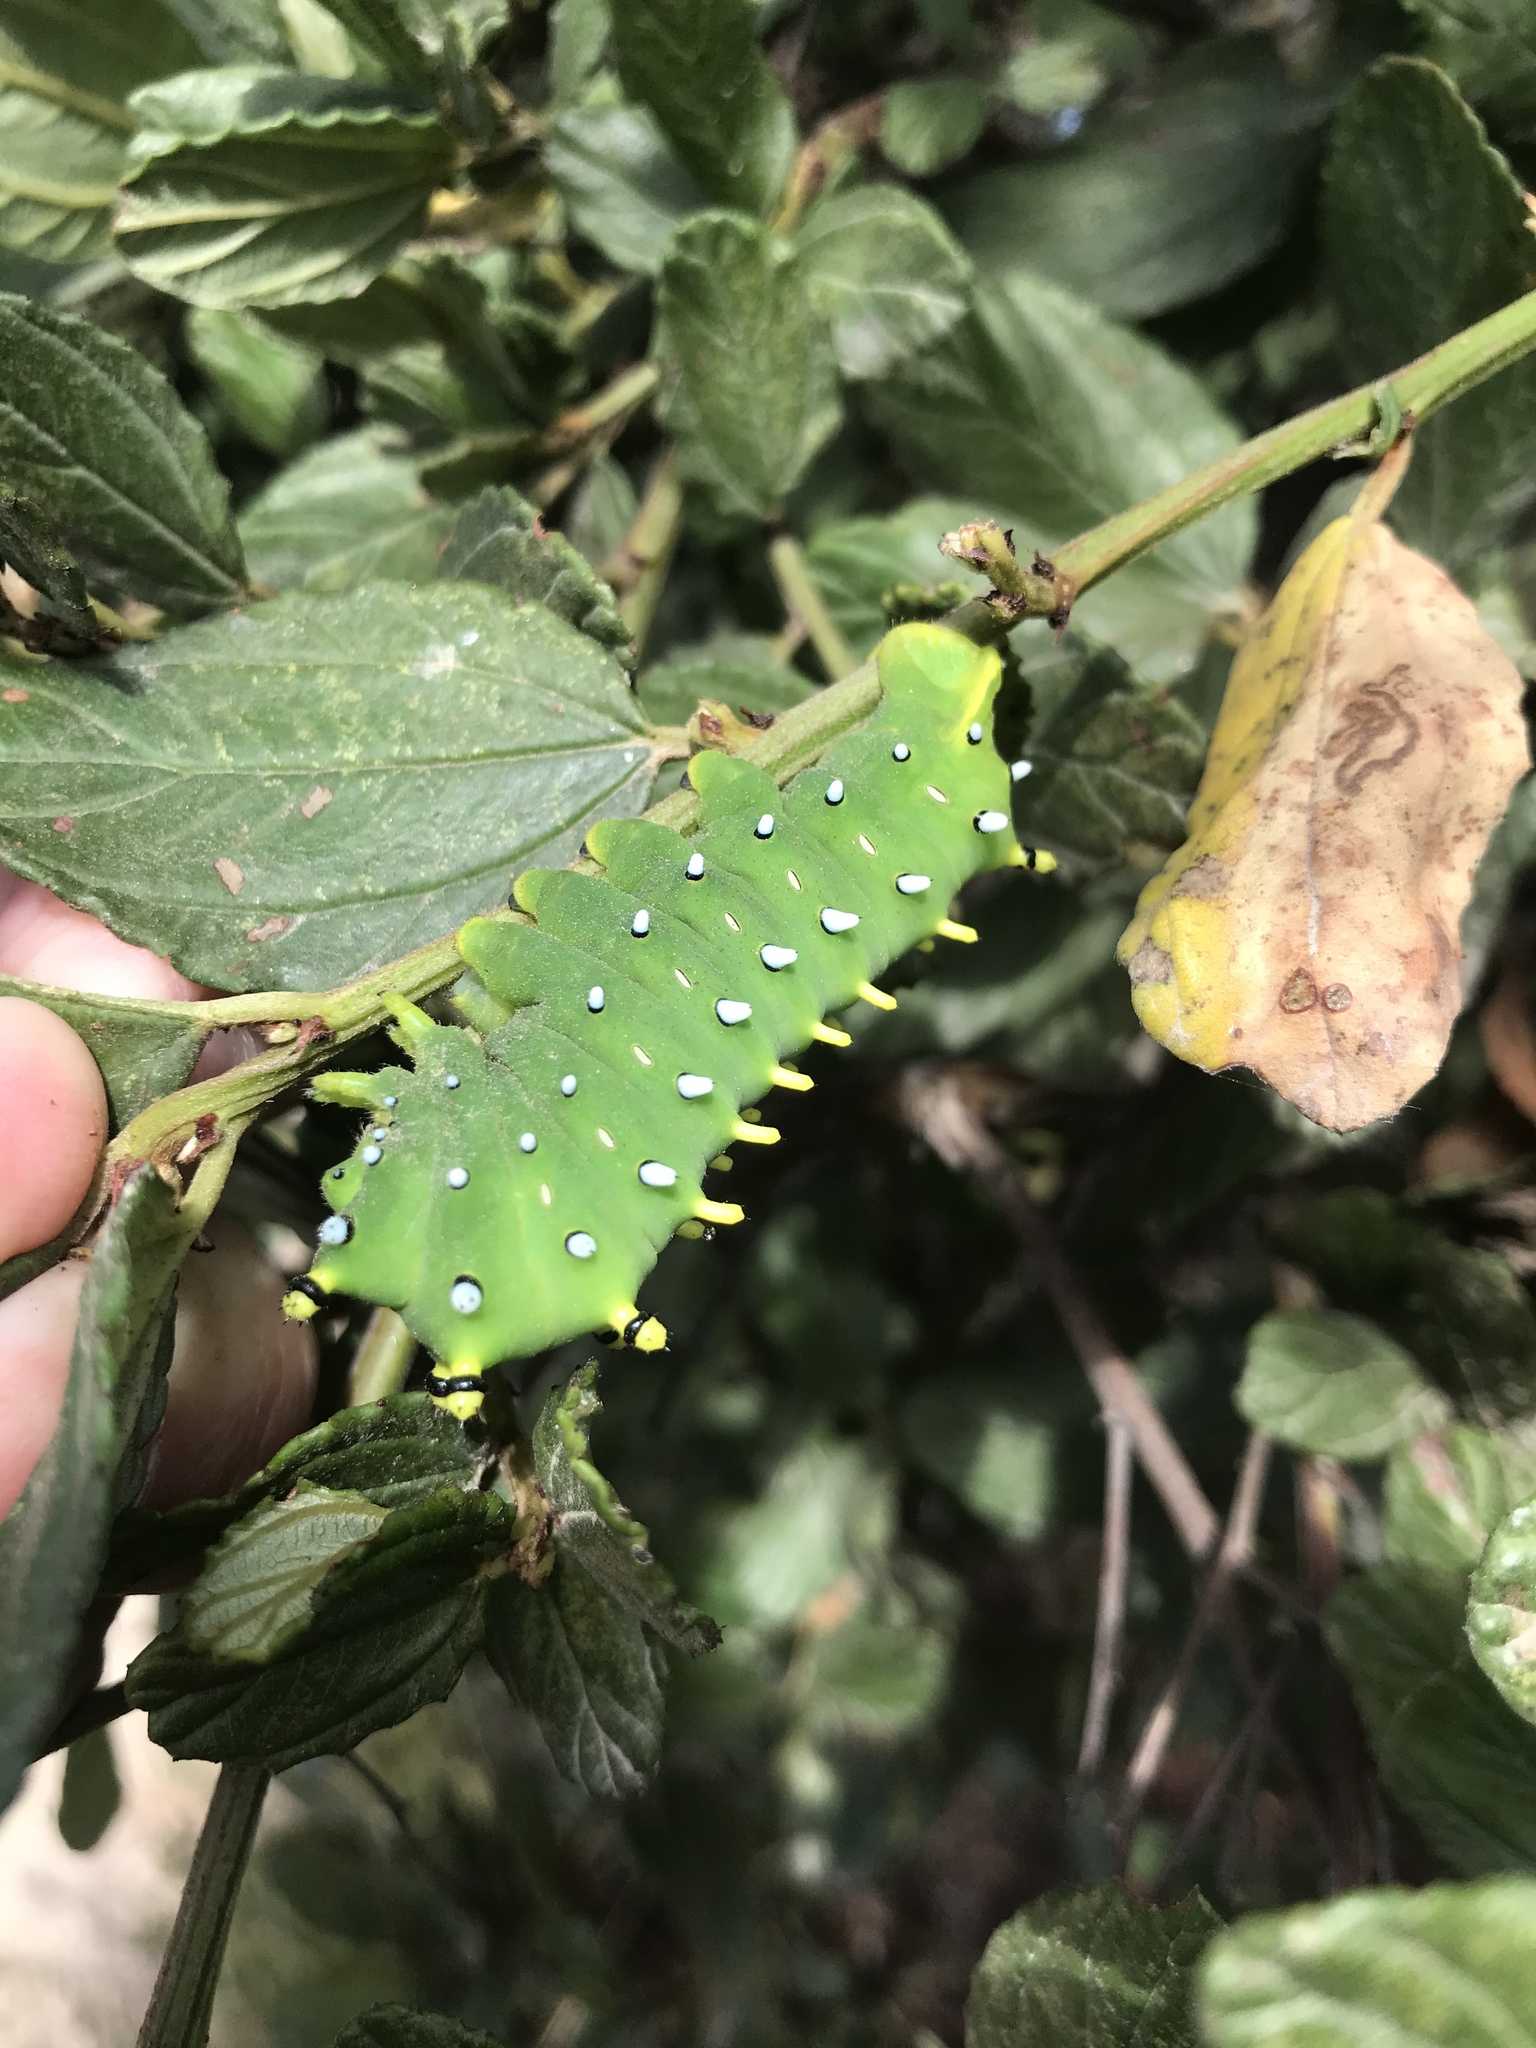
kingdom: Animalia
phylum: Arthropoda
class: Insecta
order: Lepidoptera
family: Saturniidae
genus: Hyalophora
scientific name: Hyalophora euryalus
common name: Ceanothus silkmoth
